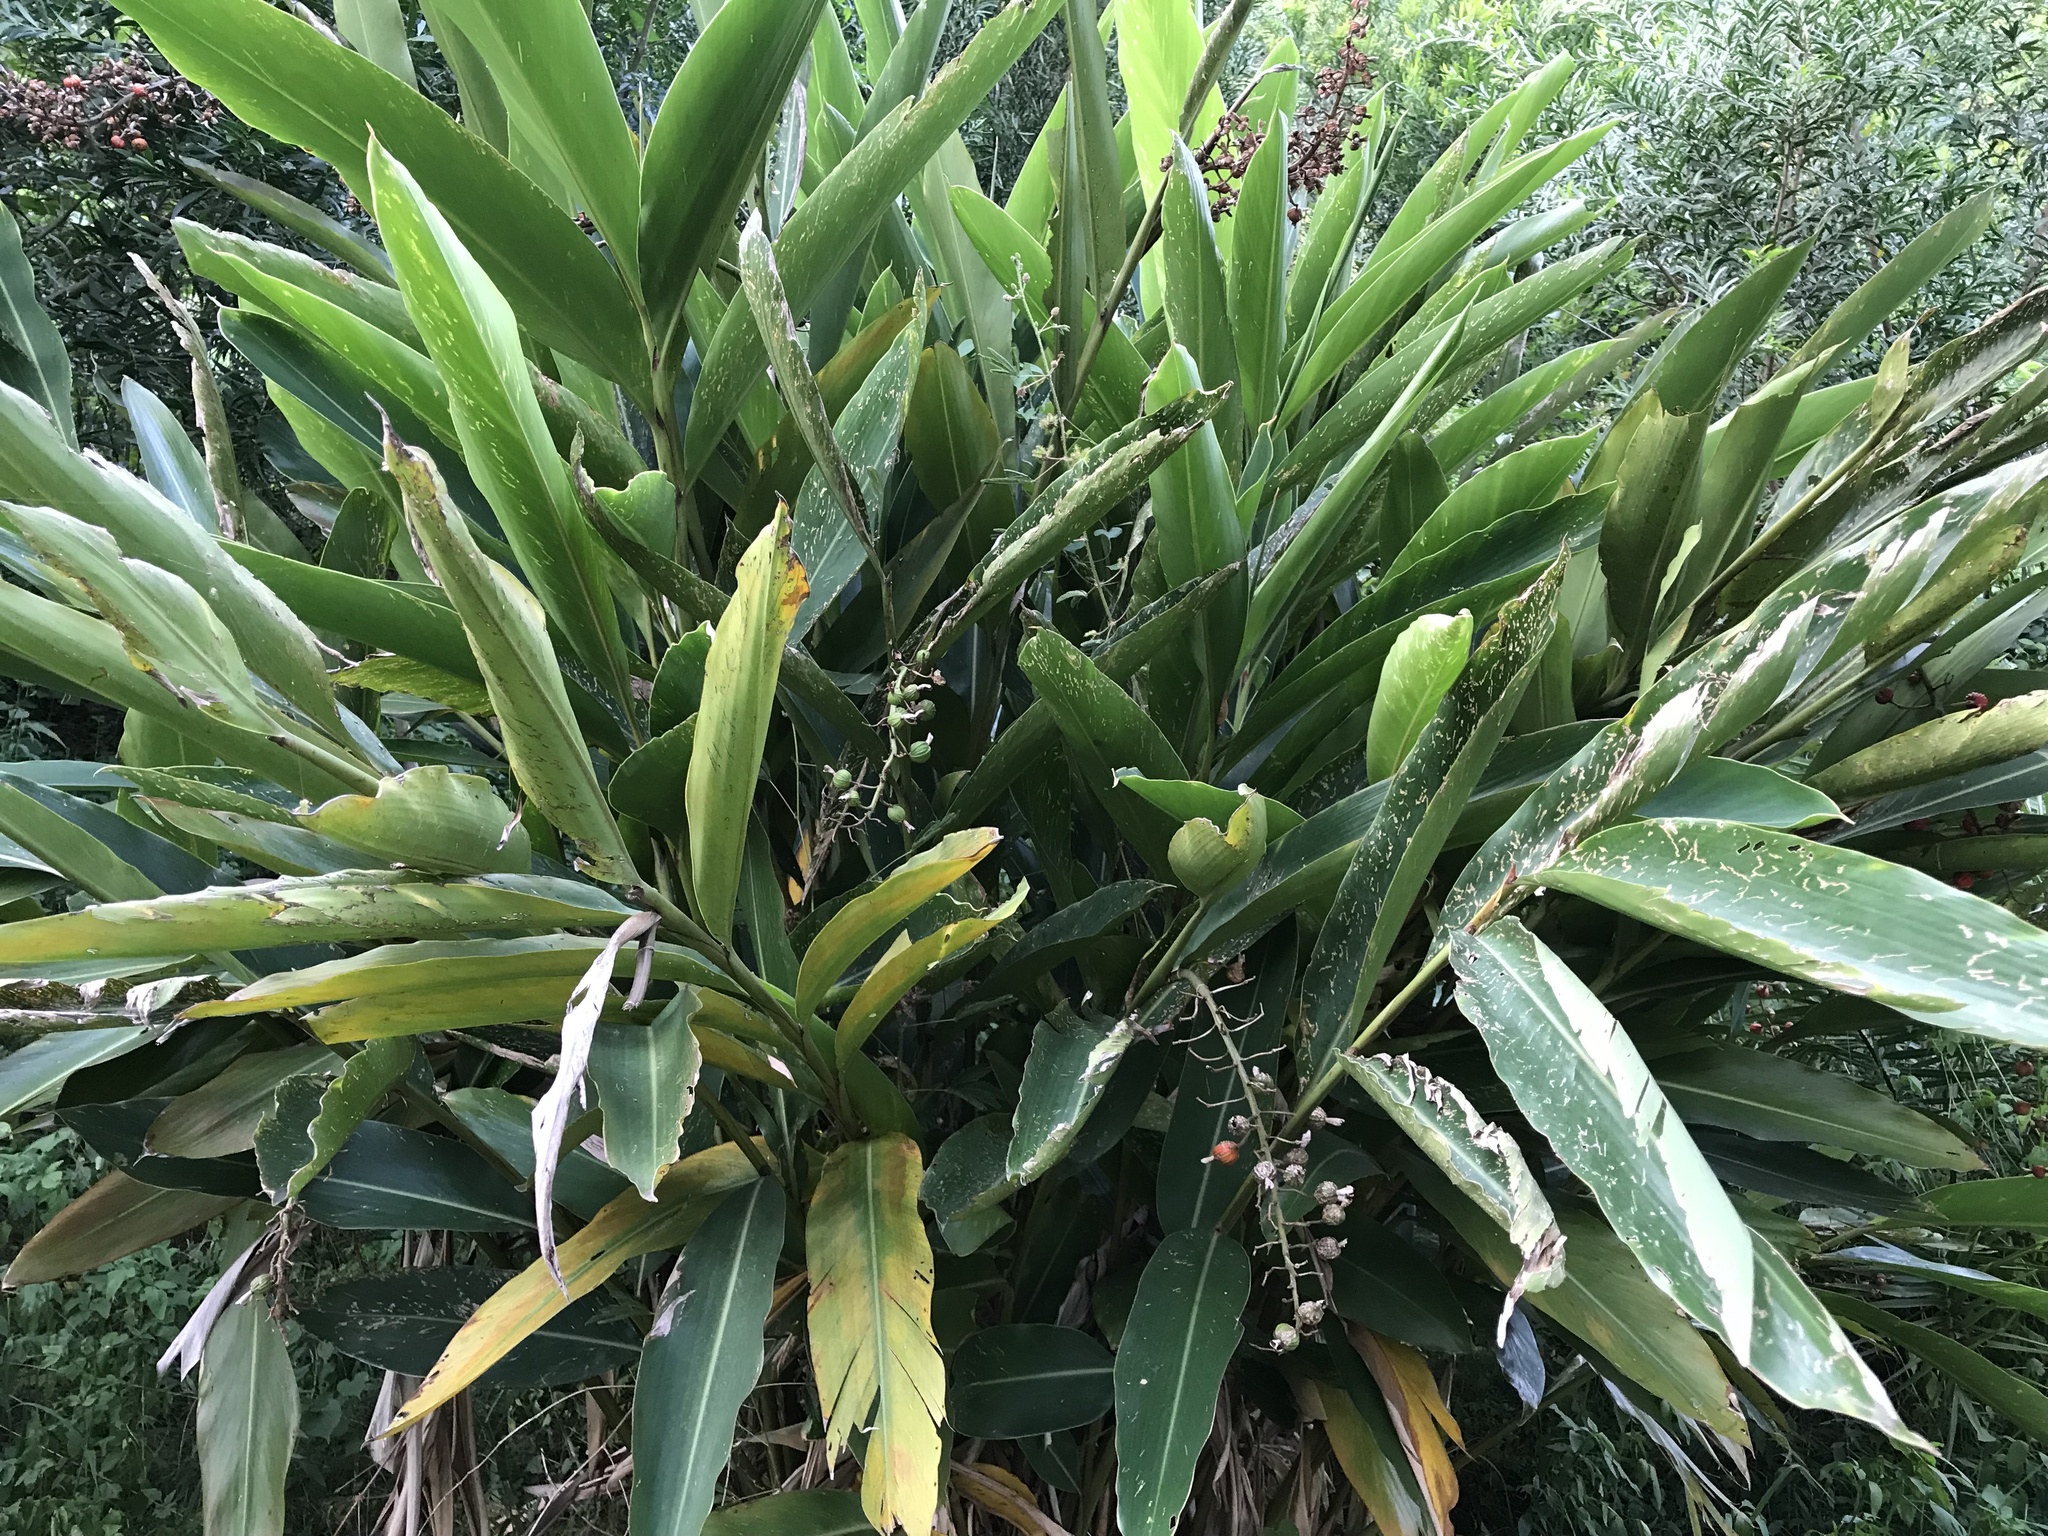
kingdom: Plantae
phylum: Tracheophyta
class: Liliopsida
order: Zingiberales
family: Zingiberaceae
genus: Alpinia
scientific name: Alpinia zerumbet
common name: Shellplant
